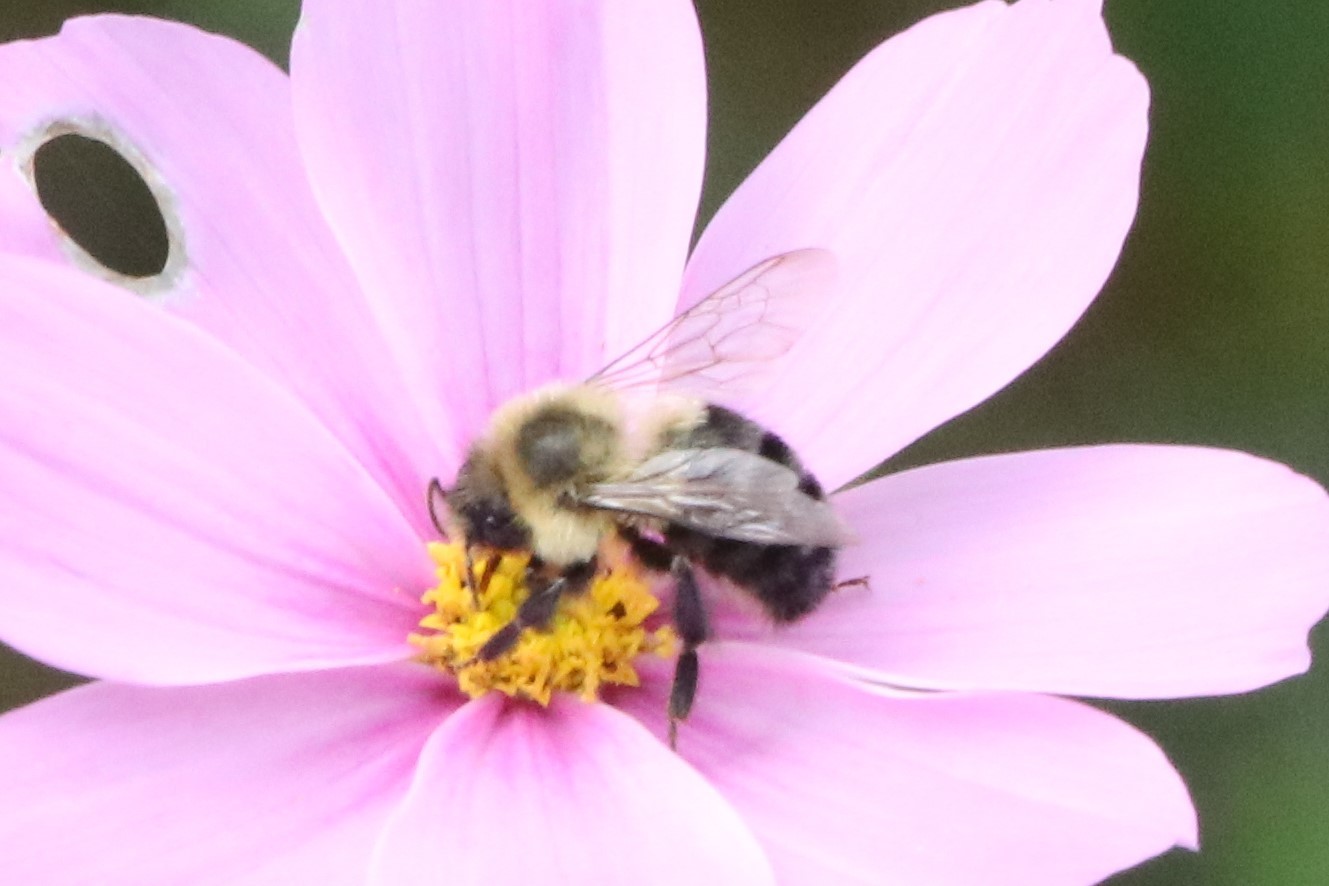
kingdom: Animalia
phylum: Arthropoda
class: Insecta
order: Hymenoptera
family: Apidae
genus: Bombus
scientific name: Bombus impatiens
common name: Common eastern bumble bee
